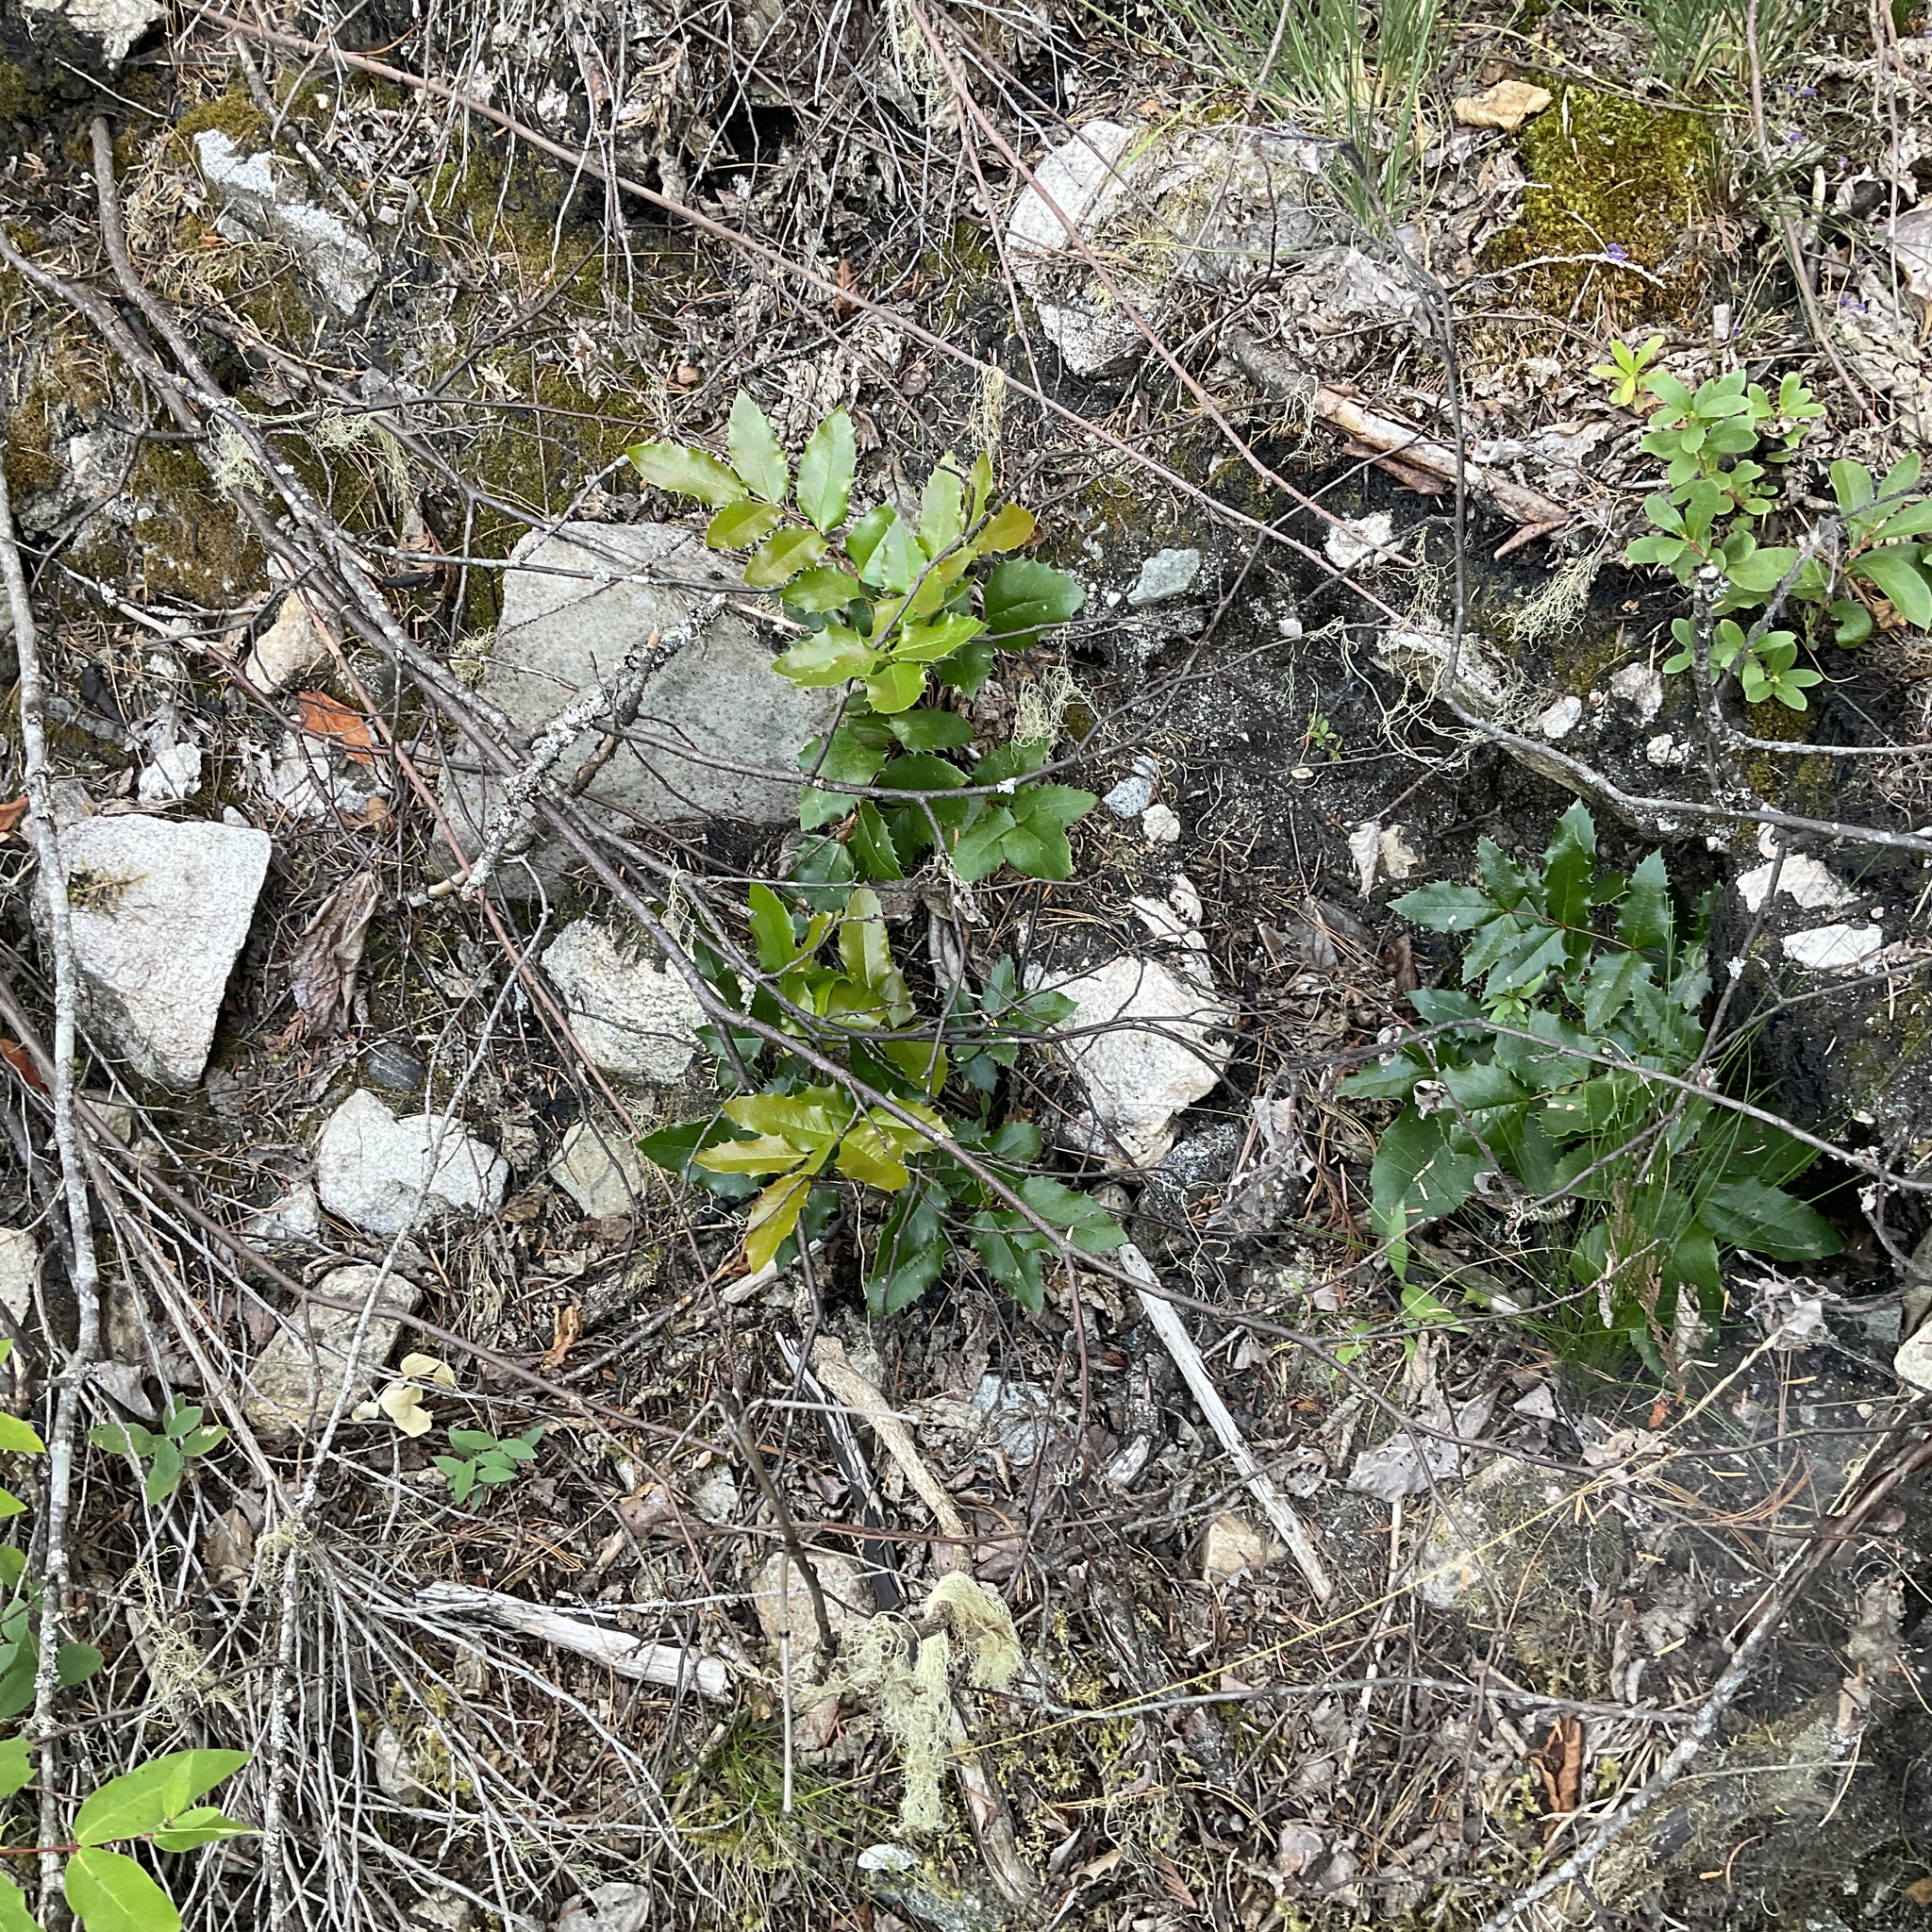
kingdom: Plantae
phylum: Tracheophyta
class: Magnoliopsida
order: Ranunculales
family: Berberidaceae
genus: Mahonia
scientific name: Mahonia aquifolium
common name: Oregon-grape
